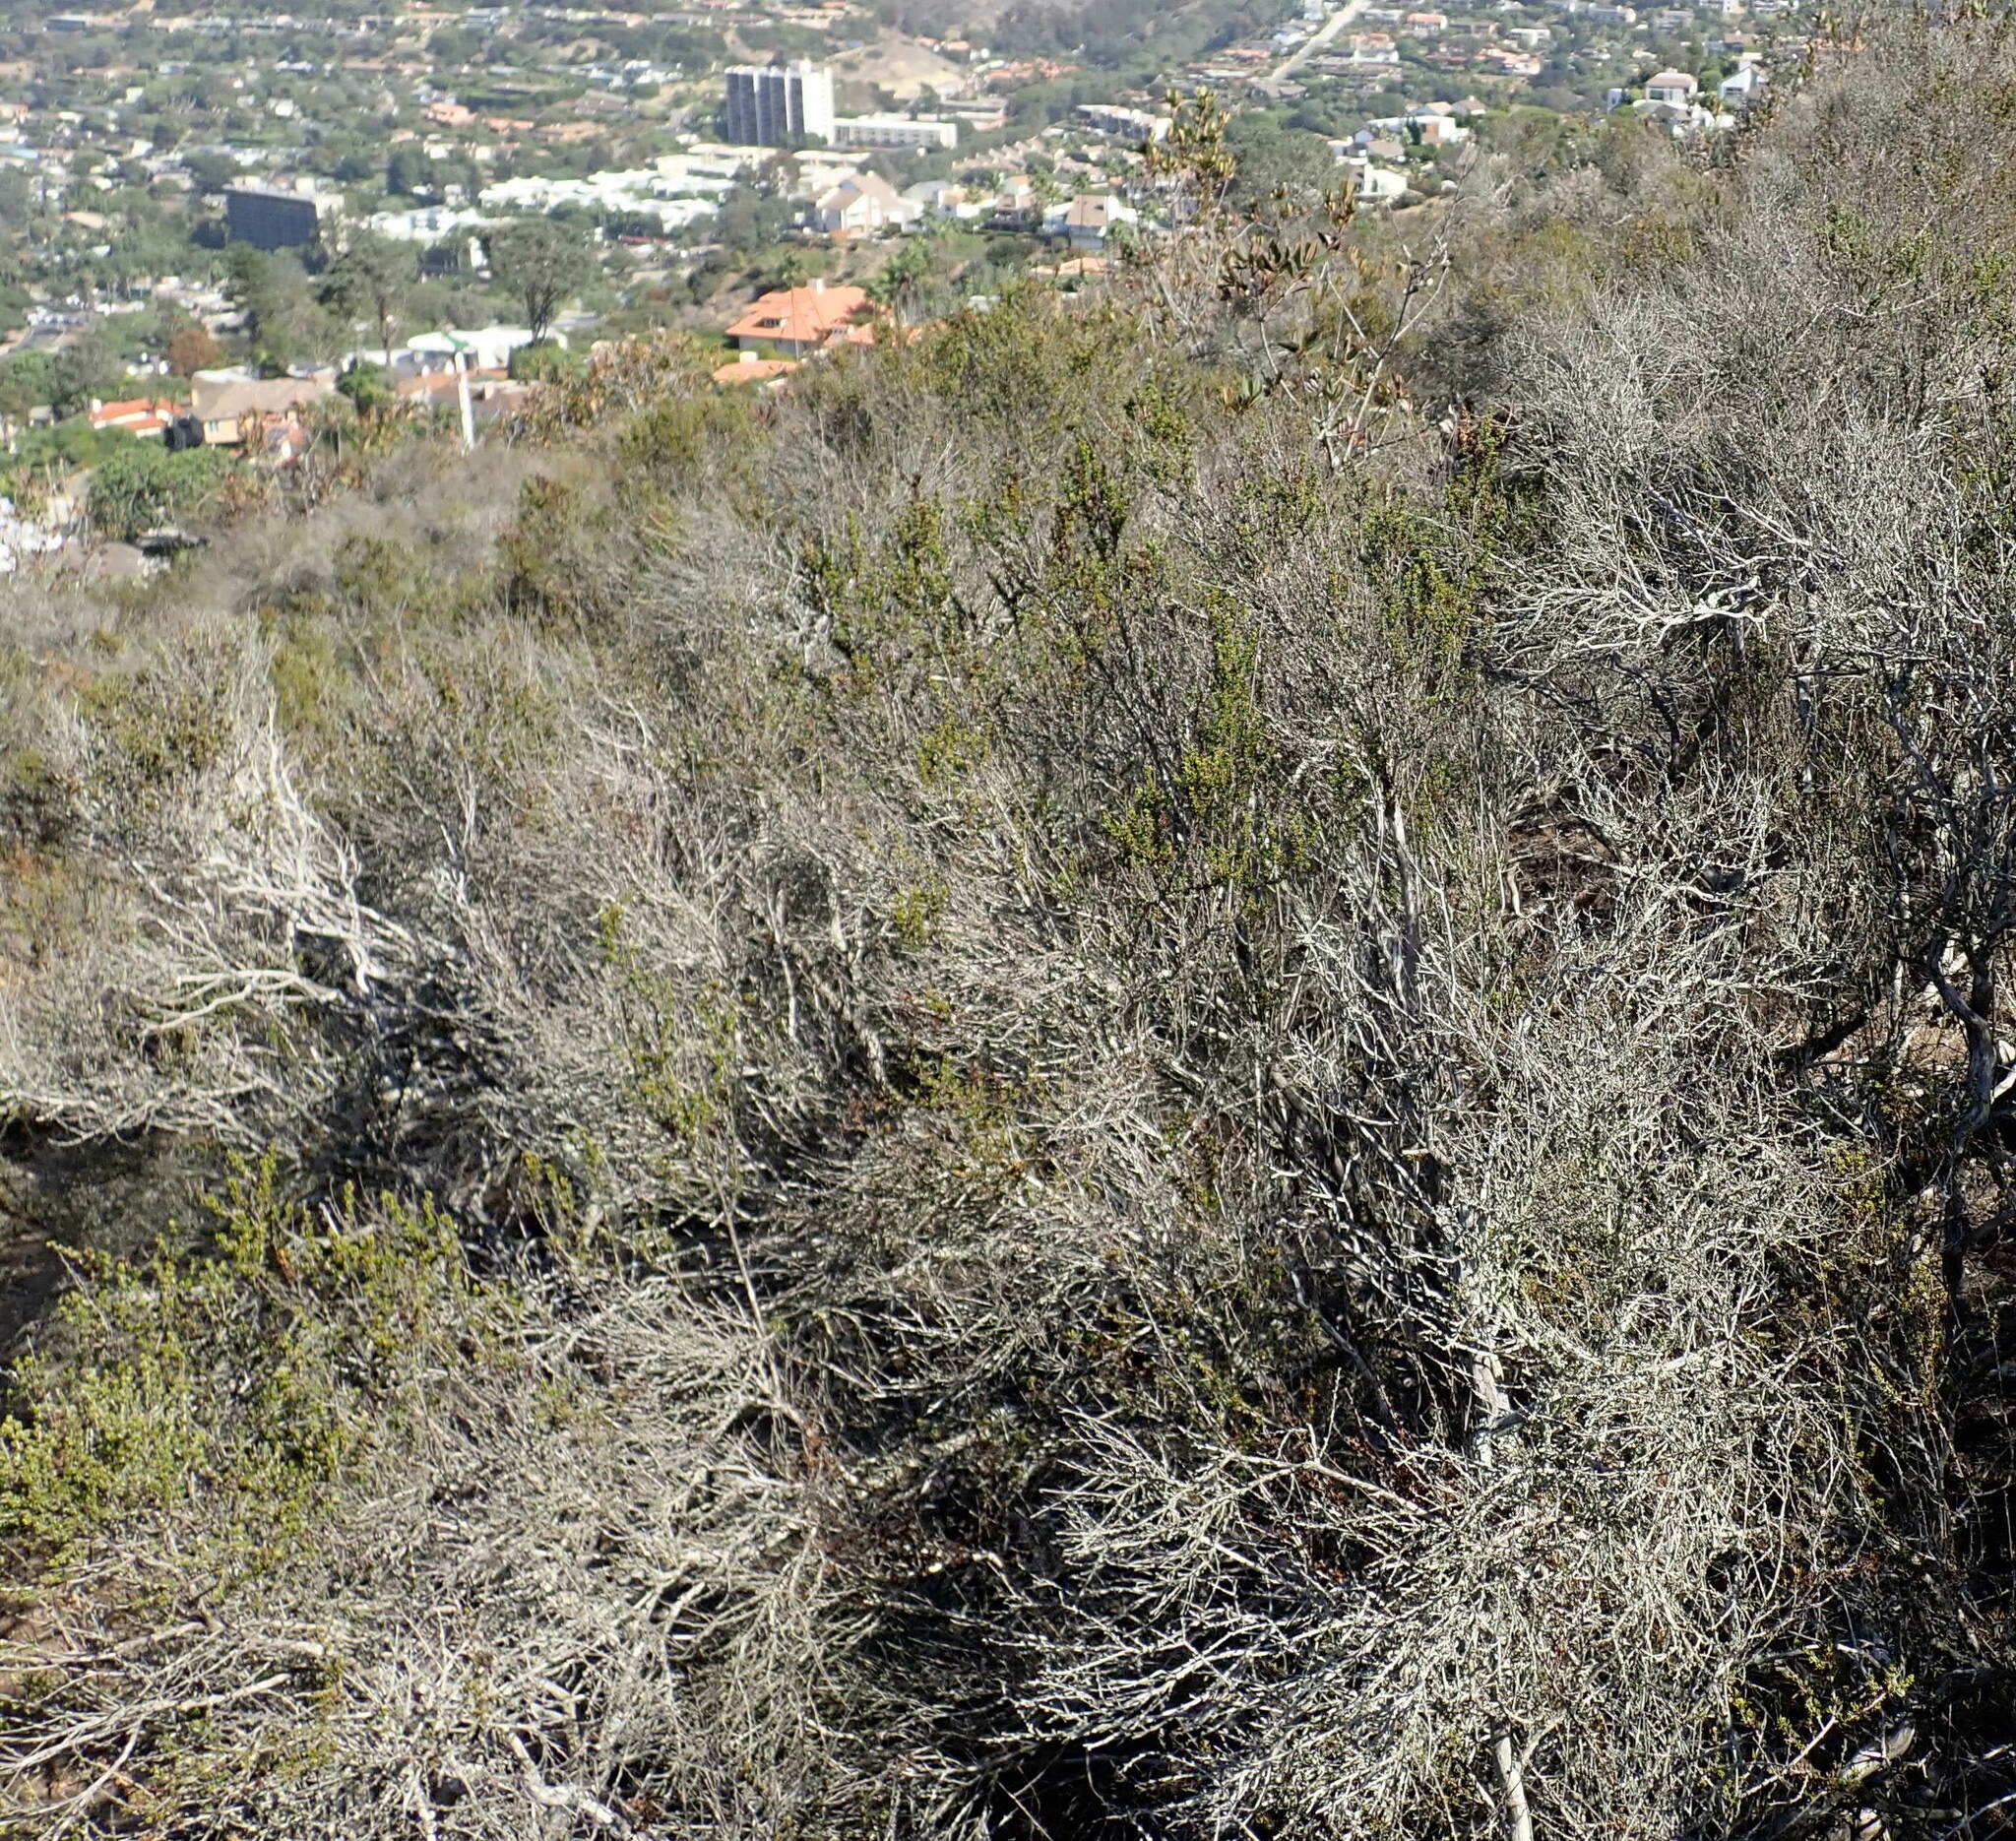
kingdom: Plantae
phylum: Tracheophyta
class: Magnoliopsida
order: Rosales
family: Rosaceae
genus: Adenostoma
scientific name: Adenostoma fasciculatum
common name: Chamise
